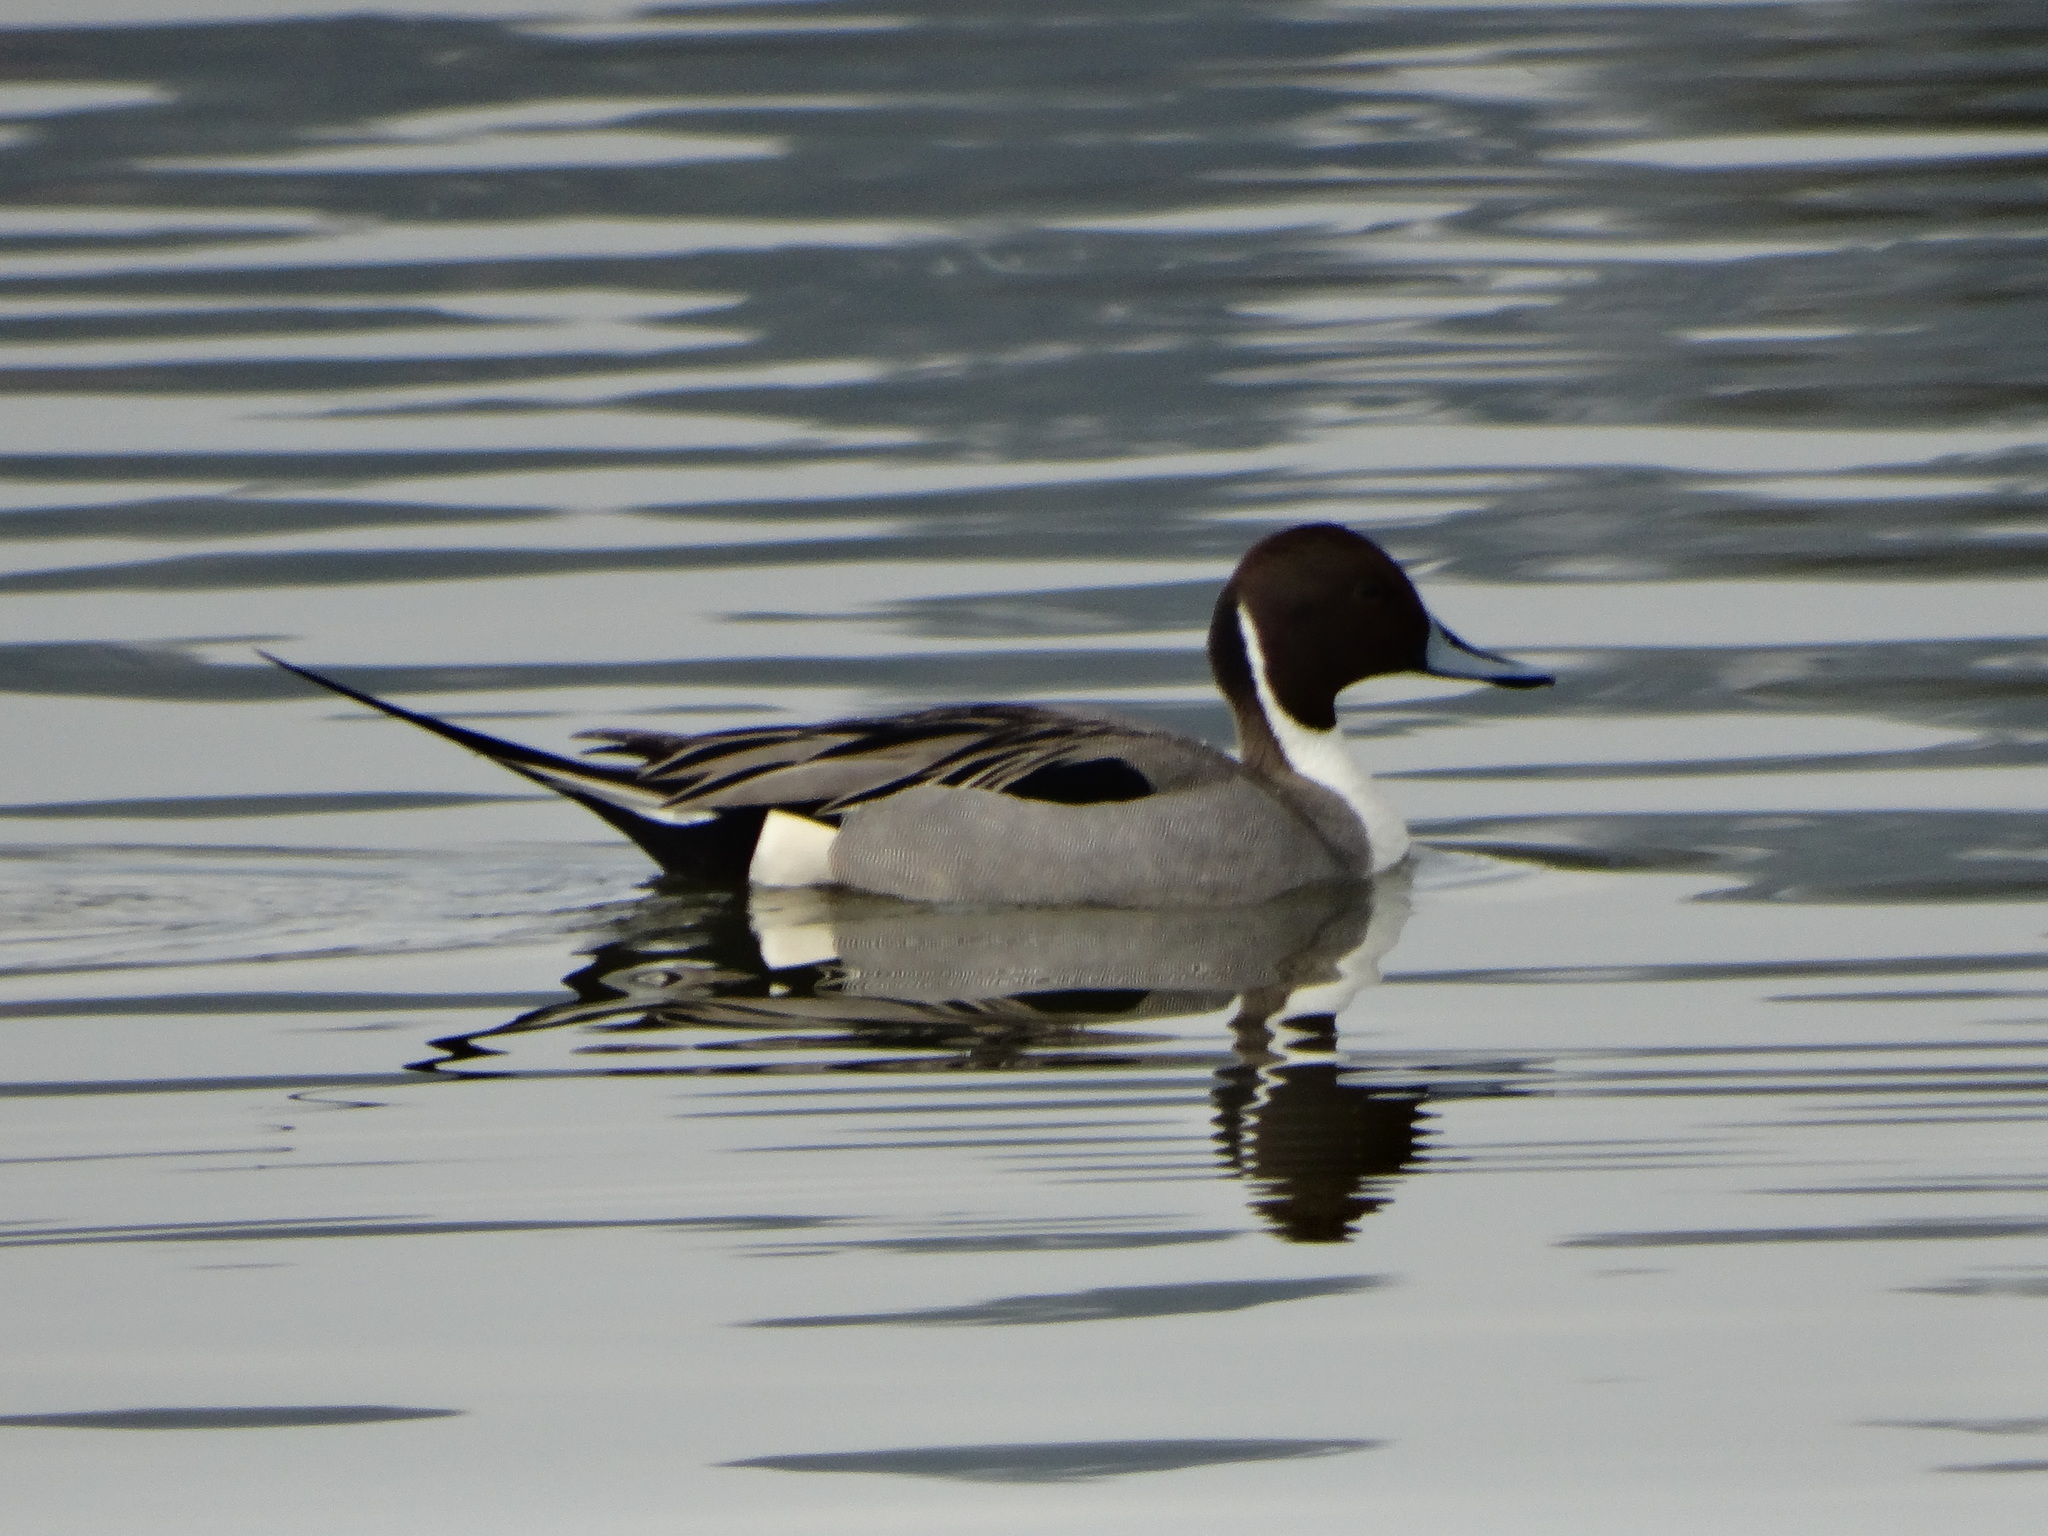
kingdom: Animalia
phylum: Chordata
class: Aves
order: Anseriformes
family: Anatidae
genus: Anas
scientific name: Anas acuta
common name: Northern pintail
